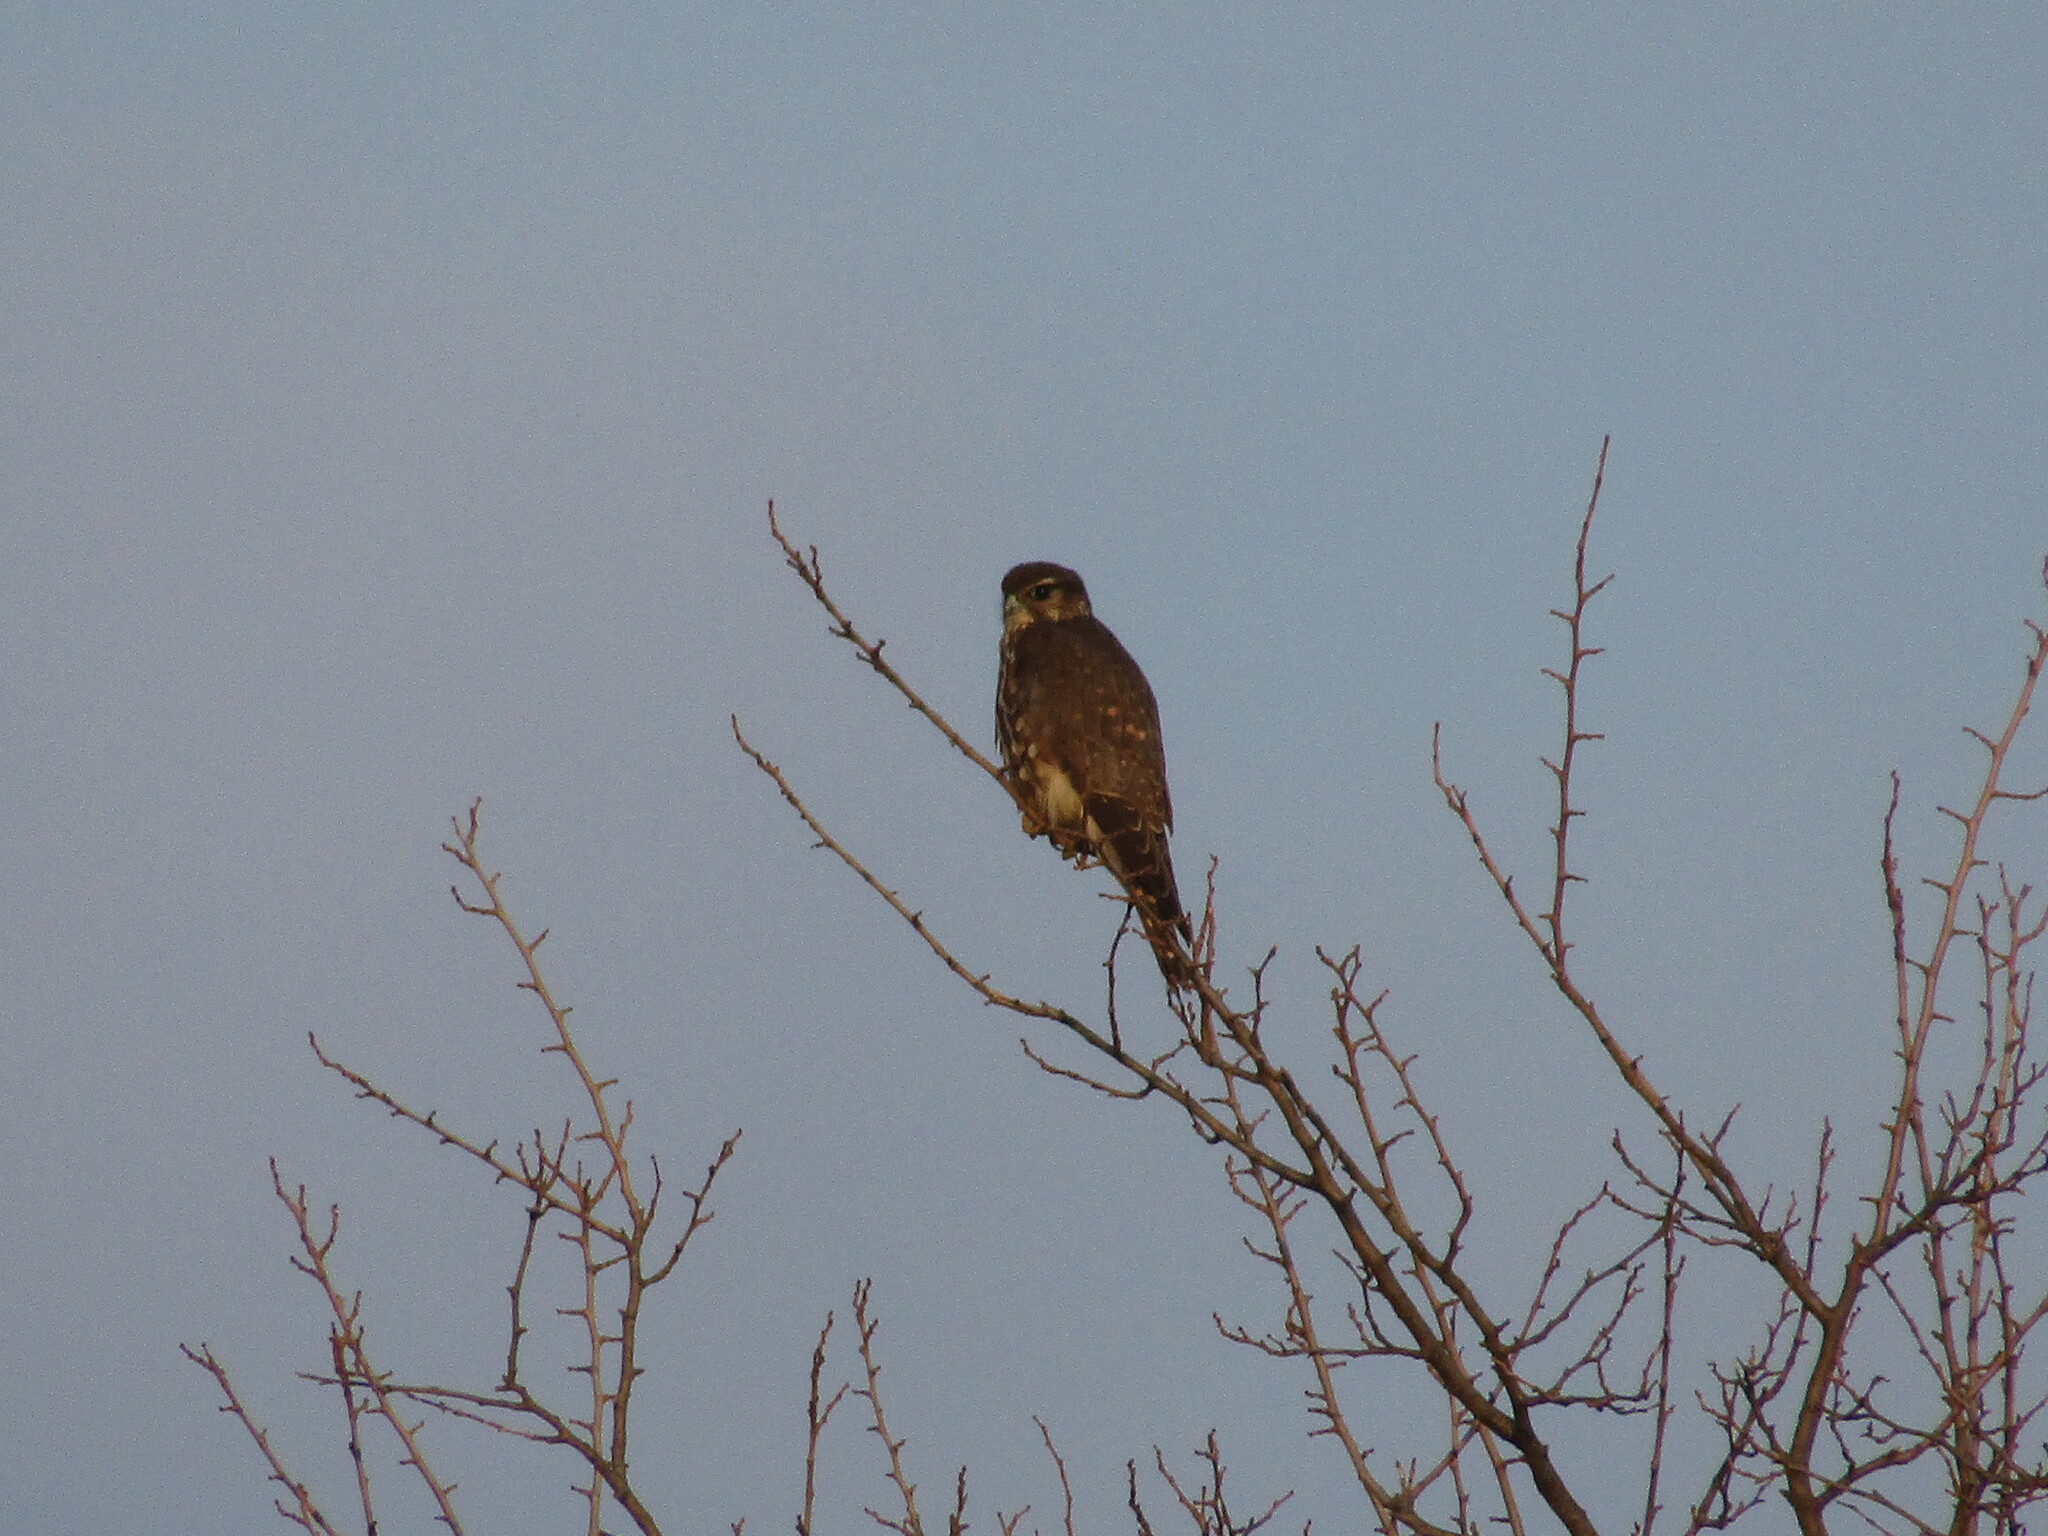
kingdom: Animalia
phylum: Chordata
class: Aves
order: Falconiformes
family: Falconidae
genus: Falco
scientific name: Falco columbarius
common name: Merlin
